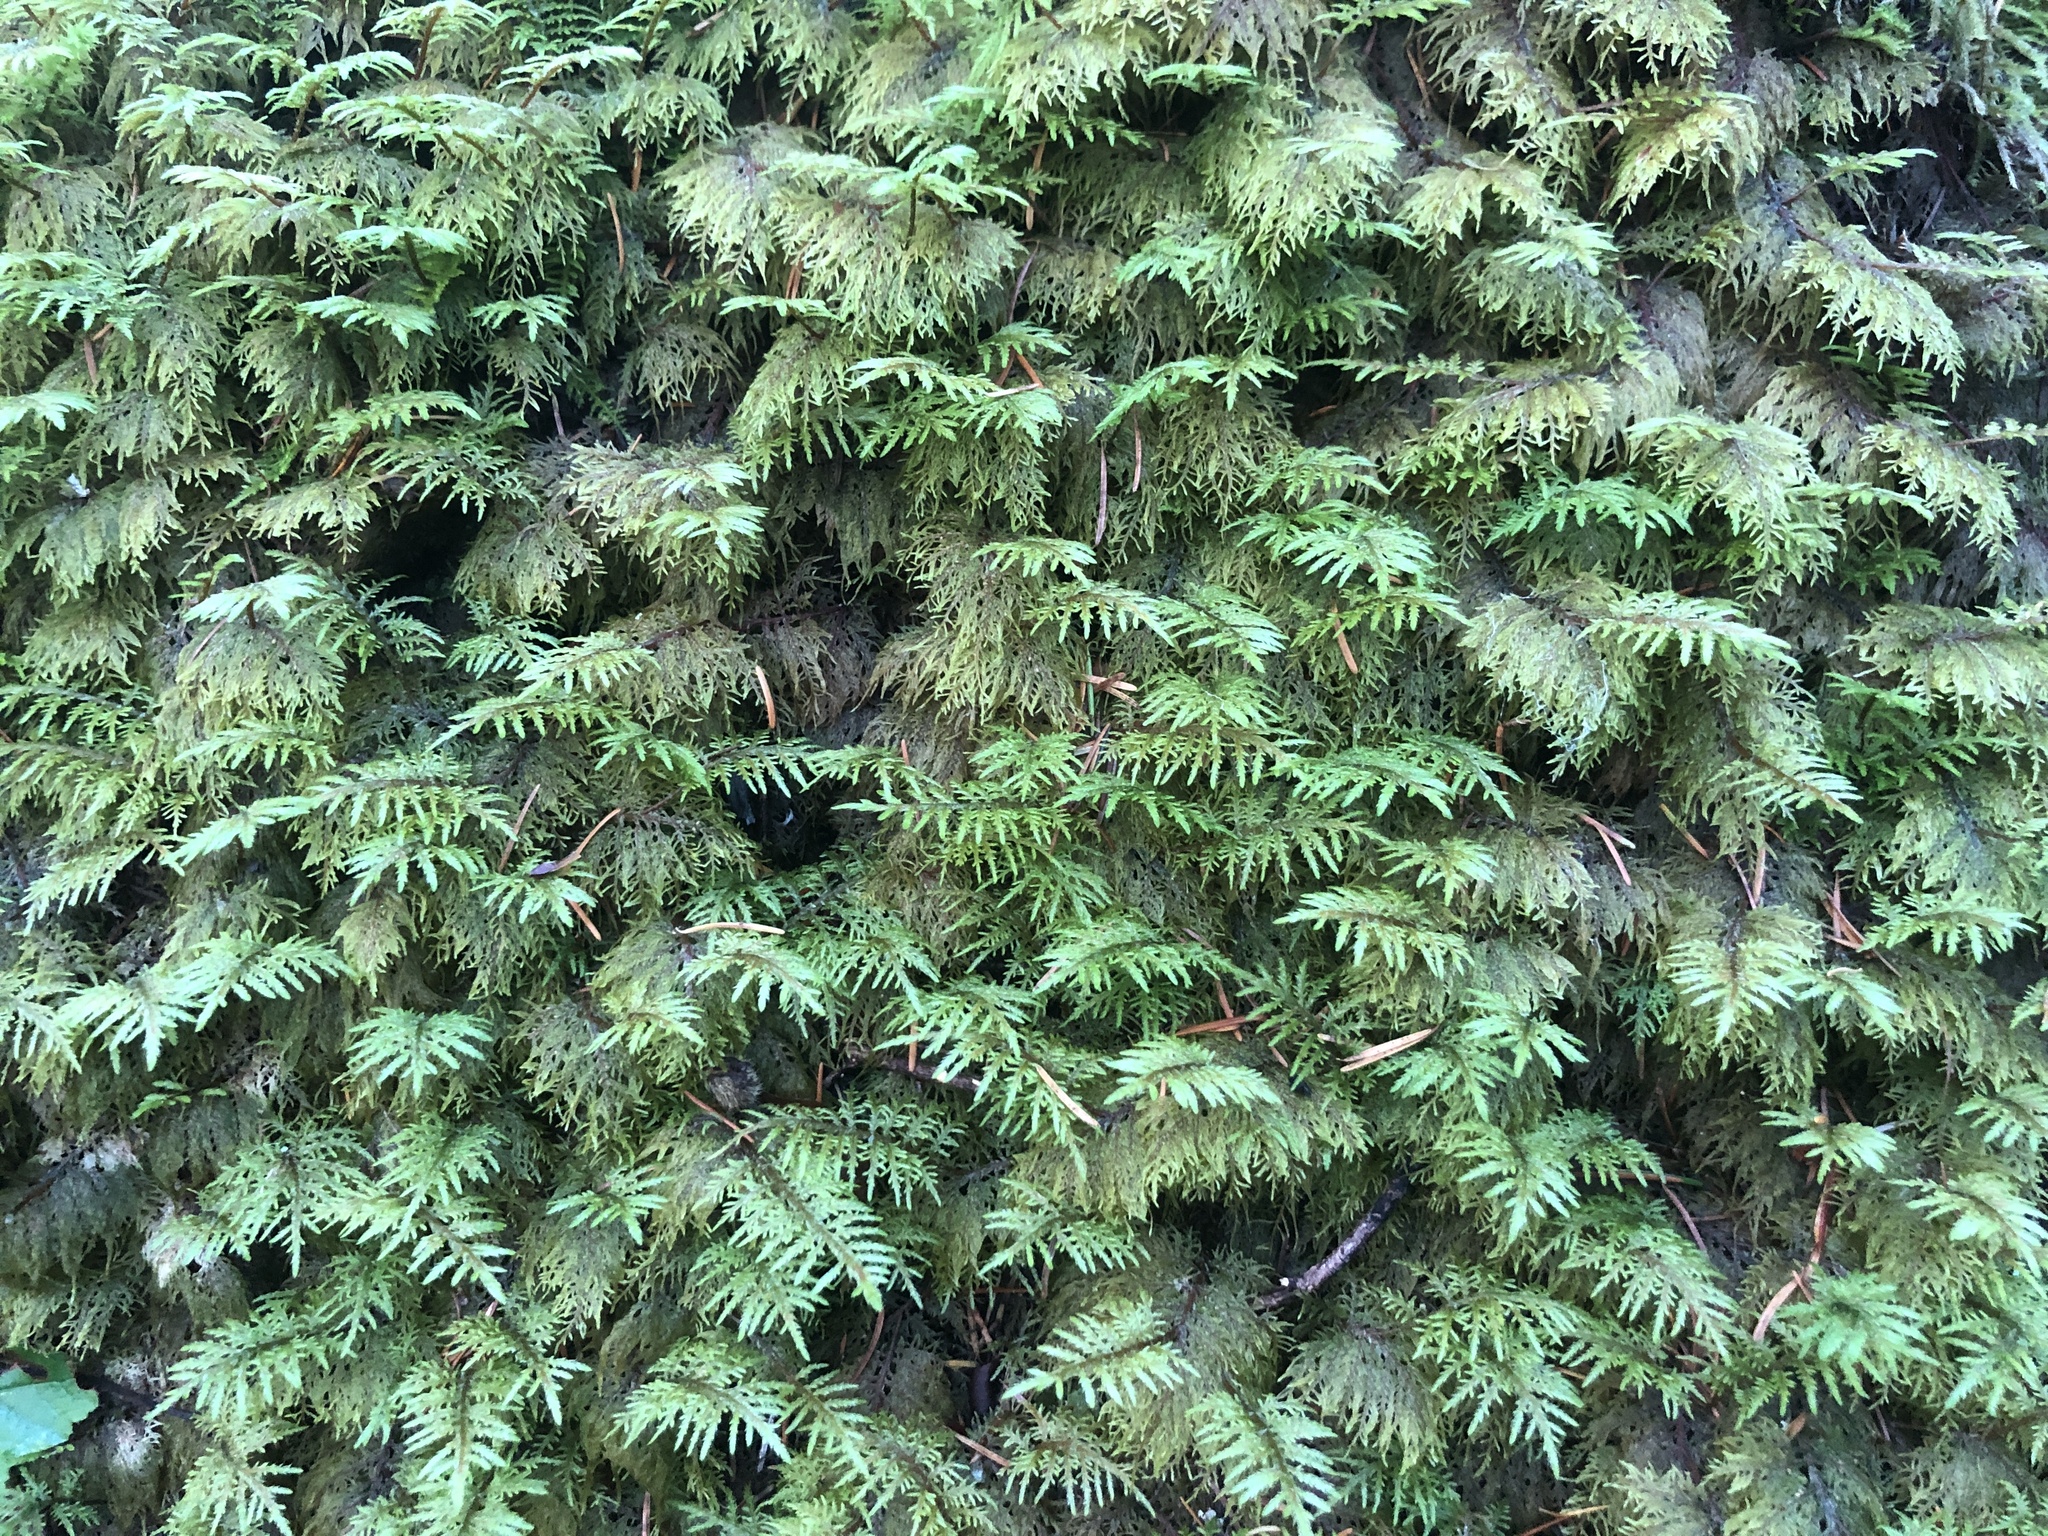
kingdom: Plantae
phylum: Bryophyta
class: Bryopsida
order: Hypnales
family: Hylocomiaceae
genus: Hylocomium
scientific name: Hylocomium splendens
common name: Stairstep moss
